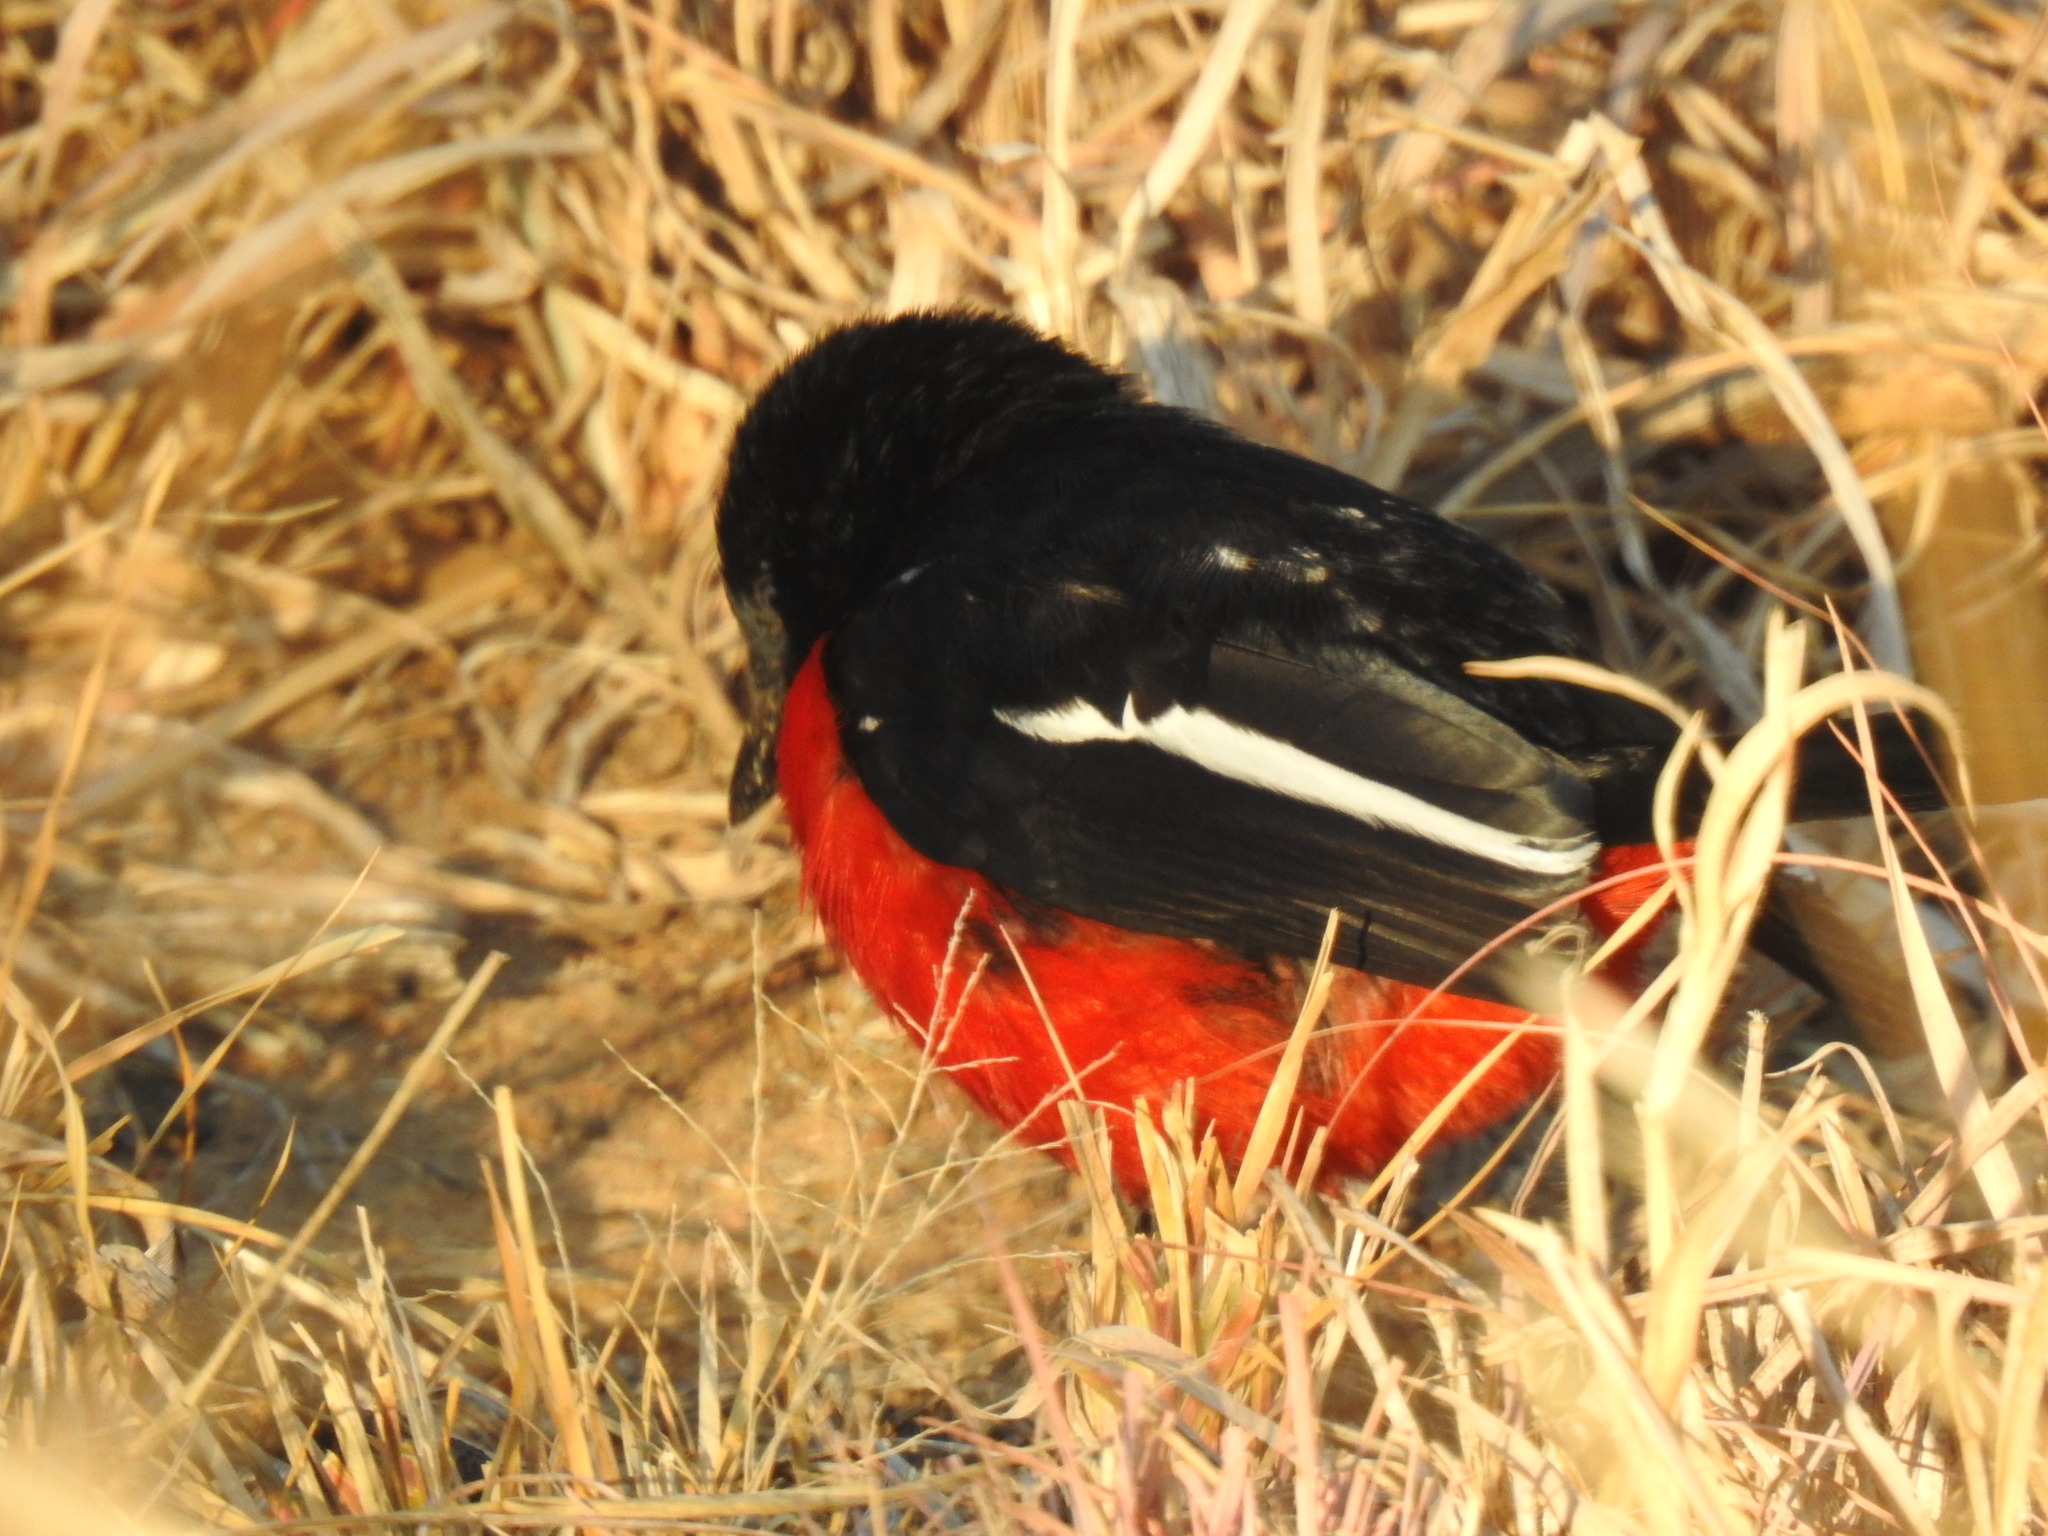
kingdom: Animalia
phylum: Chordata
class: Aves
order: Passeriformes
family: Malaconotidae
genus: Laniarius
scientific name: Laniarius atrococcineus
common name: Crimson-breasted shrike
